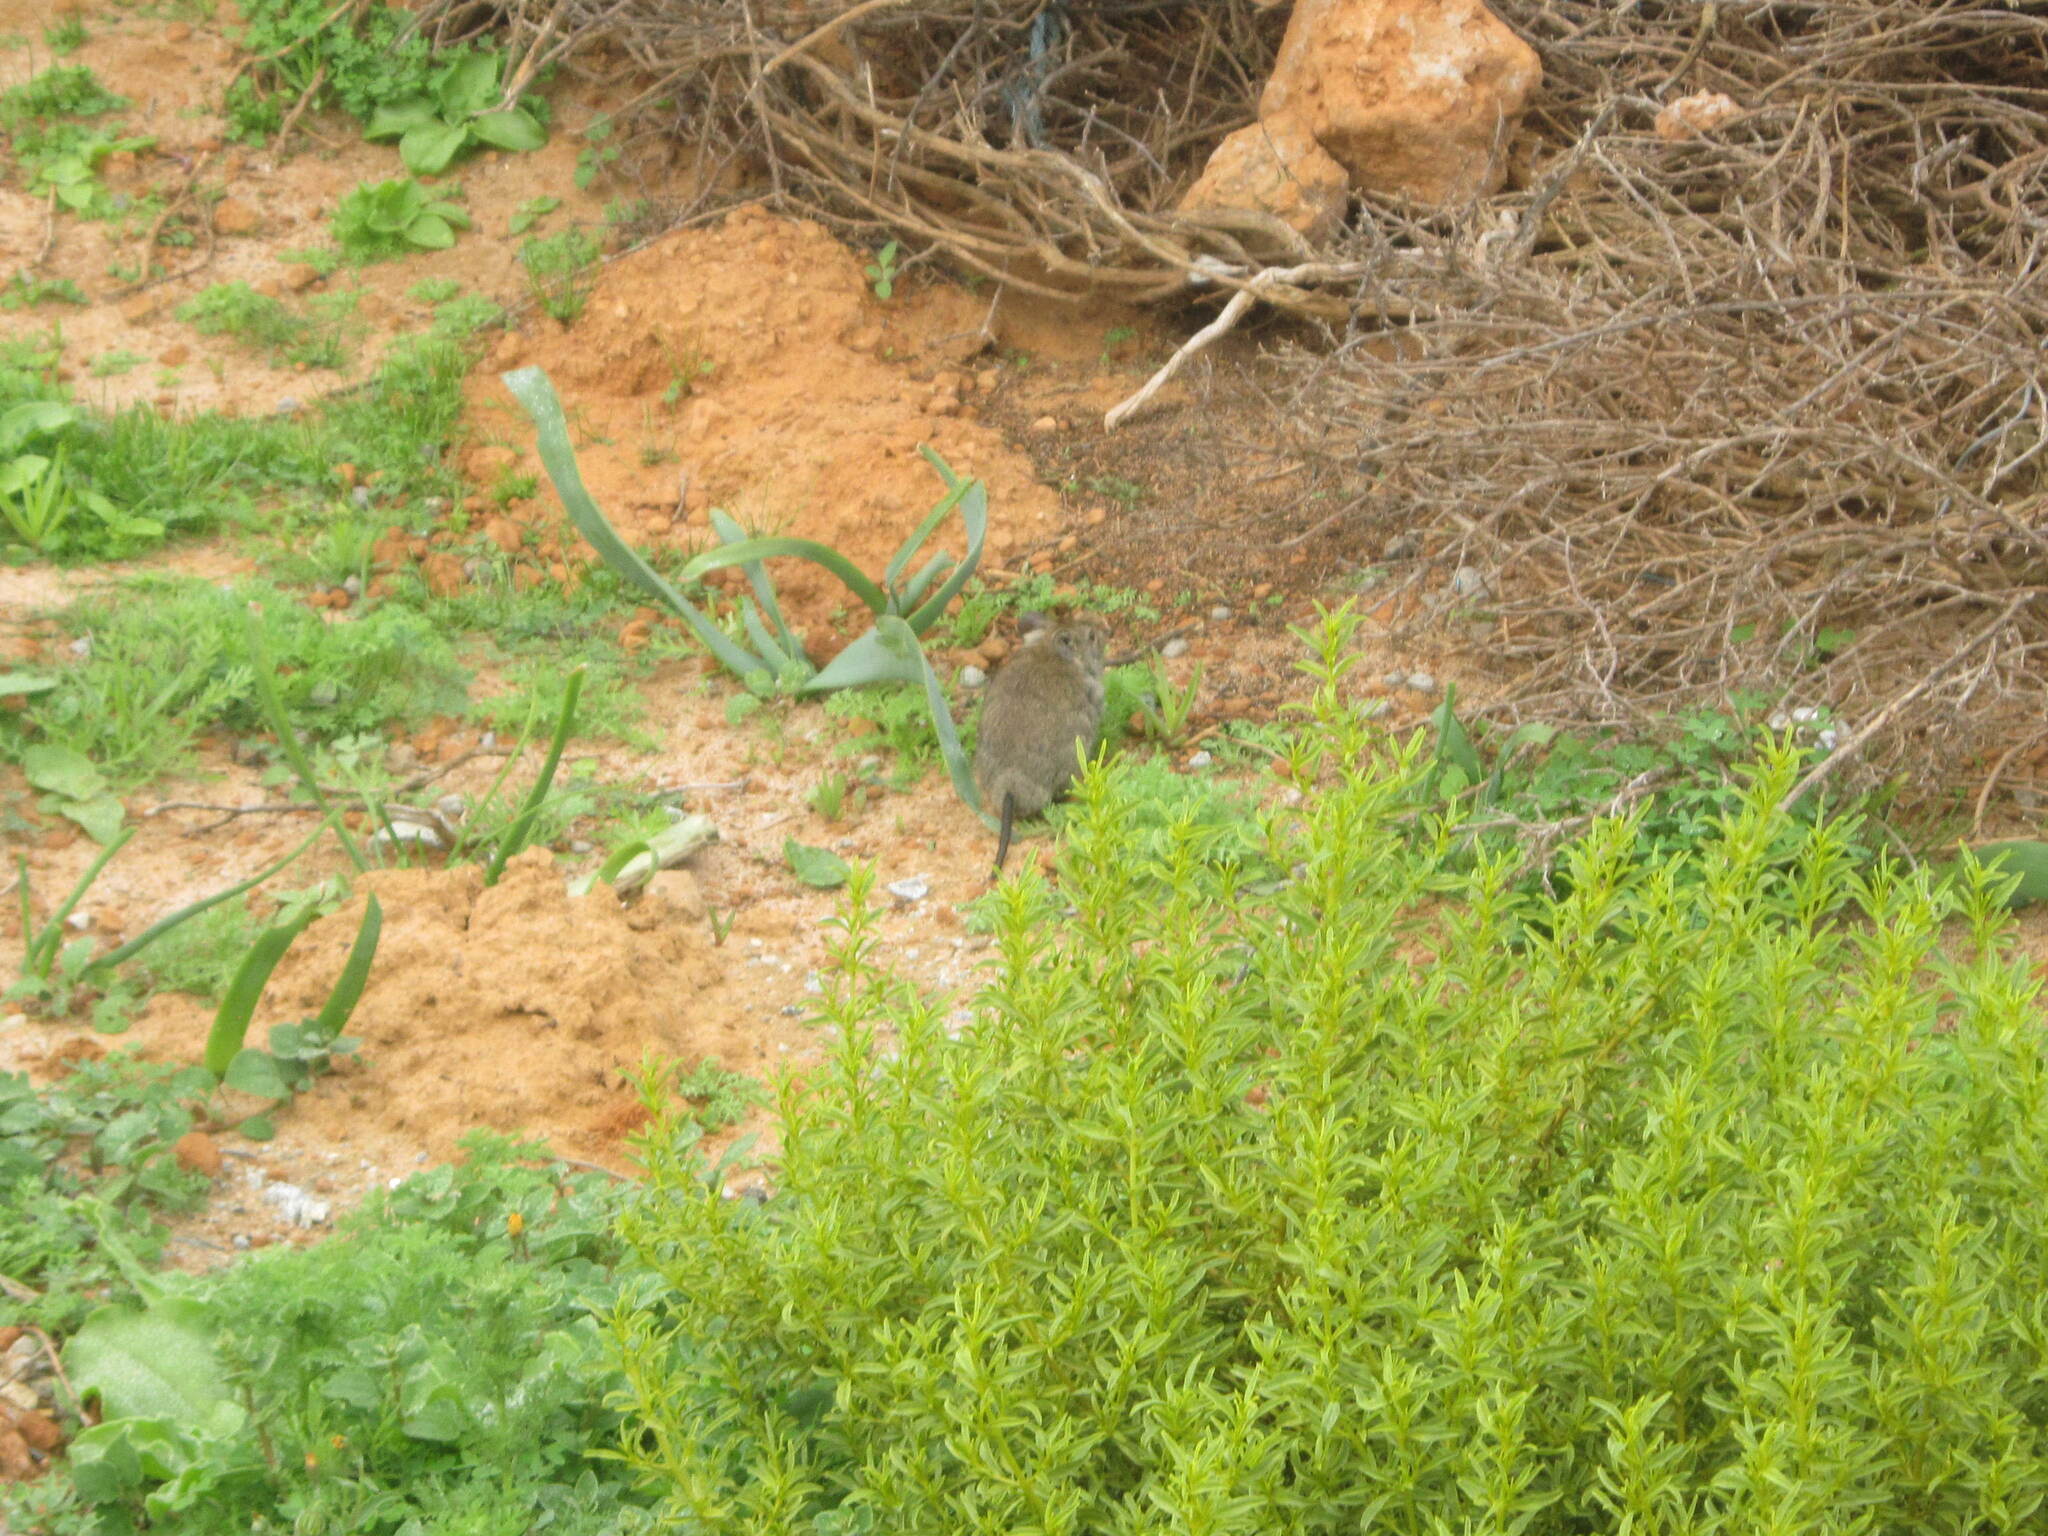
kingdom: Animalia
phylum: Chordata
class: Mammalia
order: Rodentia
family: Muridae
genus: Myotomys
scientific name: Myotomys unisulcatus
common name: Bush karroo rat
